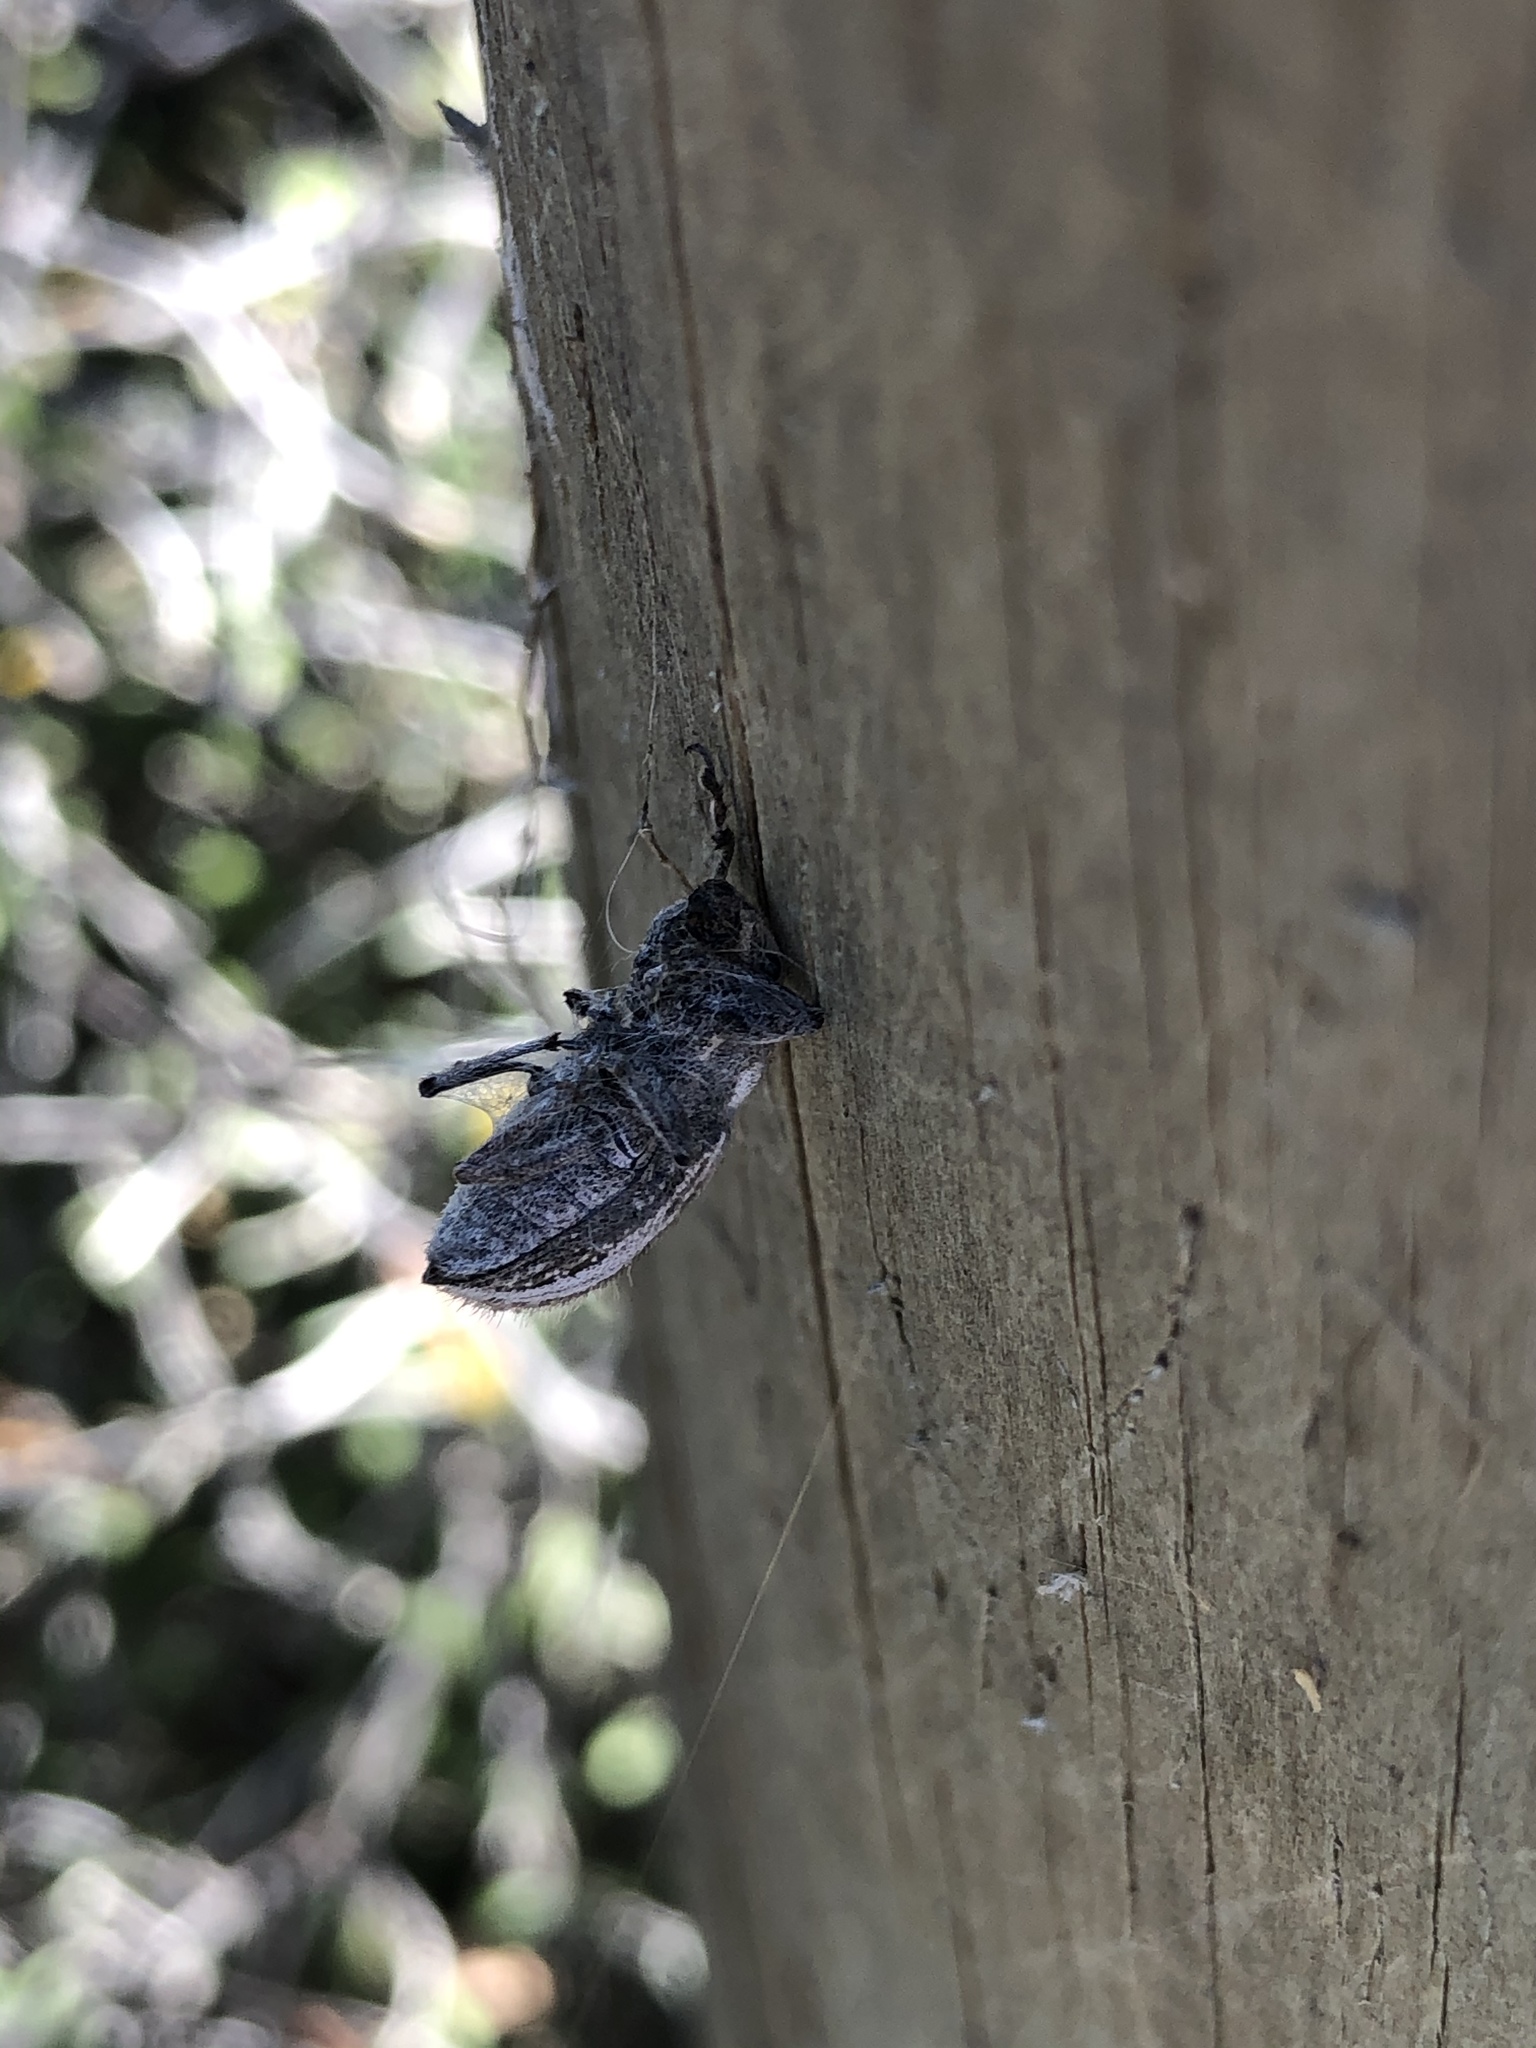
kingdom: Animalia
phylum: Arthropoda
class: Insecta
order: Coleoptera
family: Curculionidae
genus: Naupactus
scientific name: Naupactus leucoloma
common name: Whitefringed beetle
